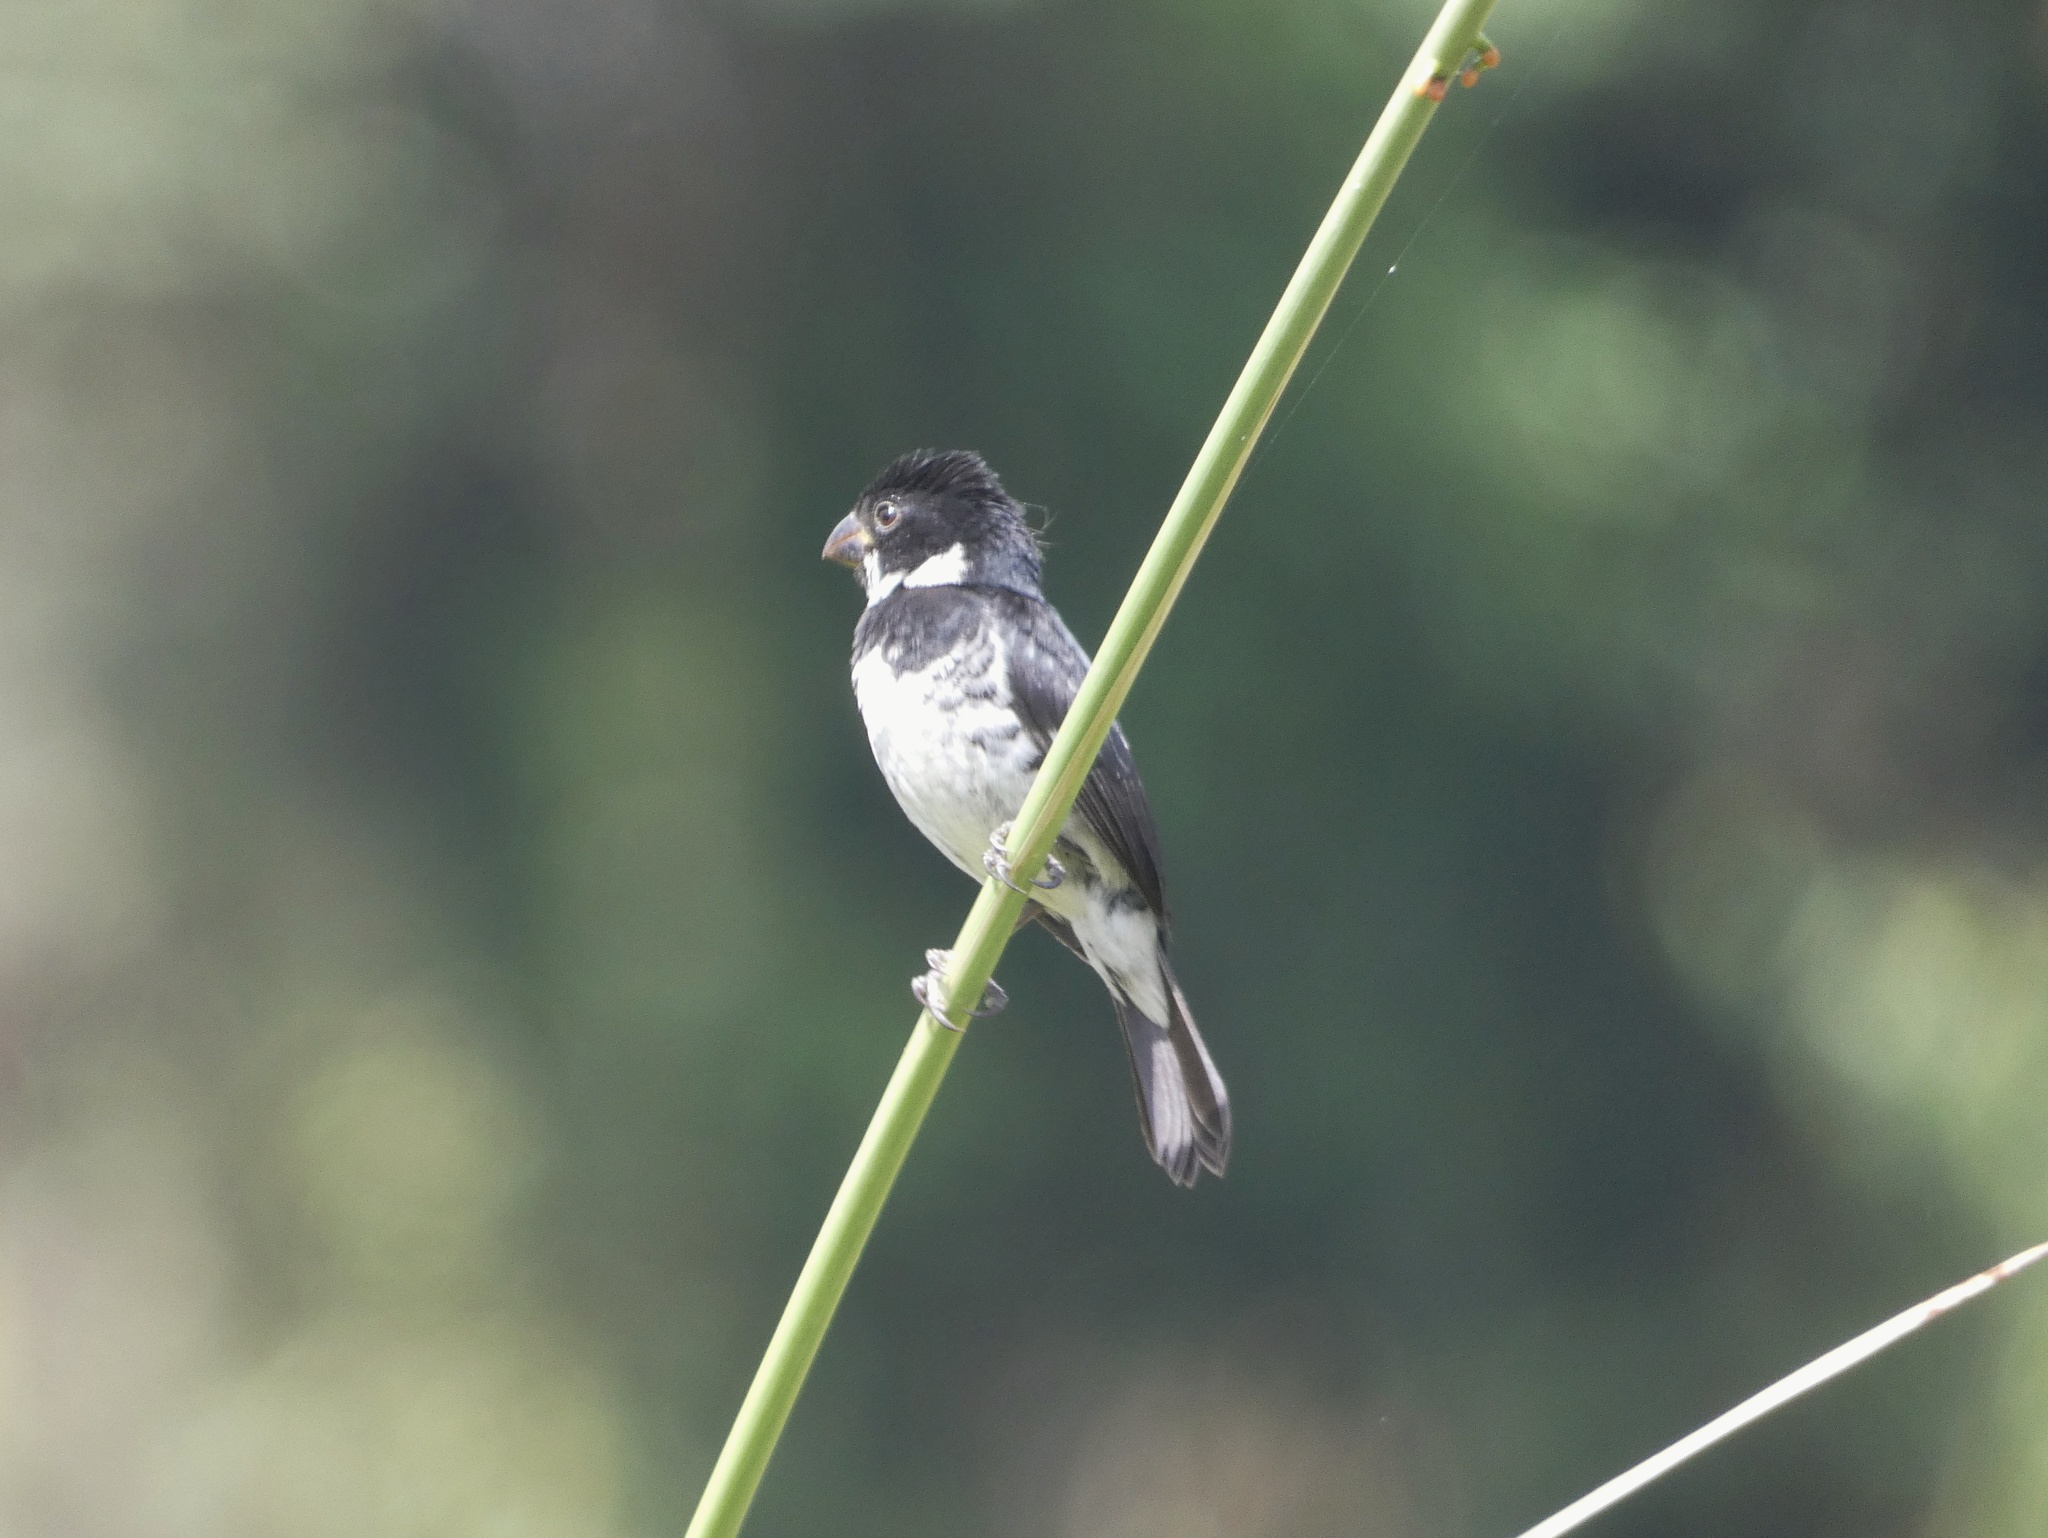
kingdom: Animalia
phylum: Chordata
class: Aves
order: Passeriformes
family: Thraupidae
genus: Sporophila
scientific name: Sporophila corvina
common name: Variable seedeater
